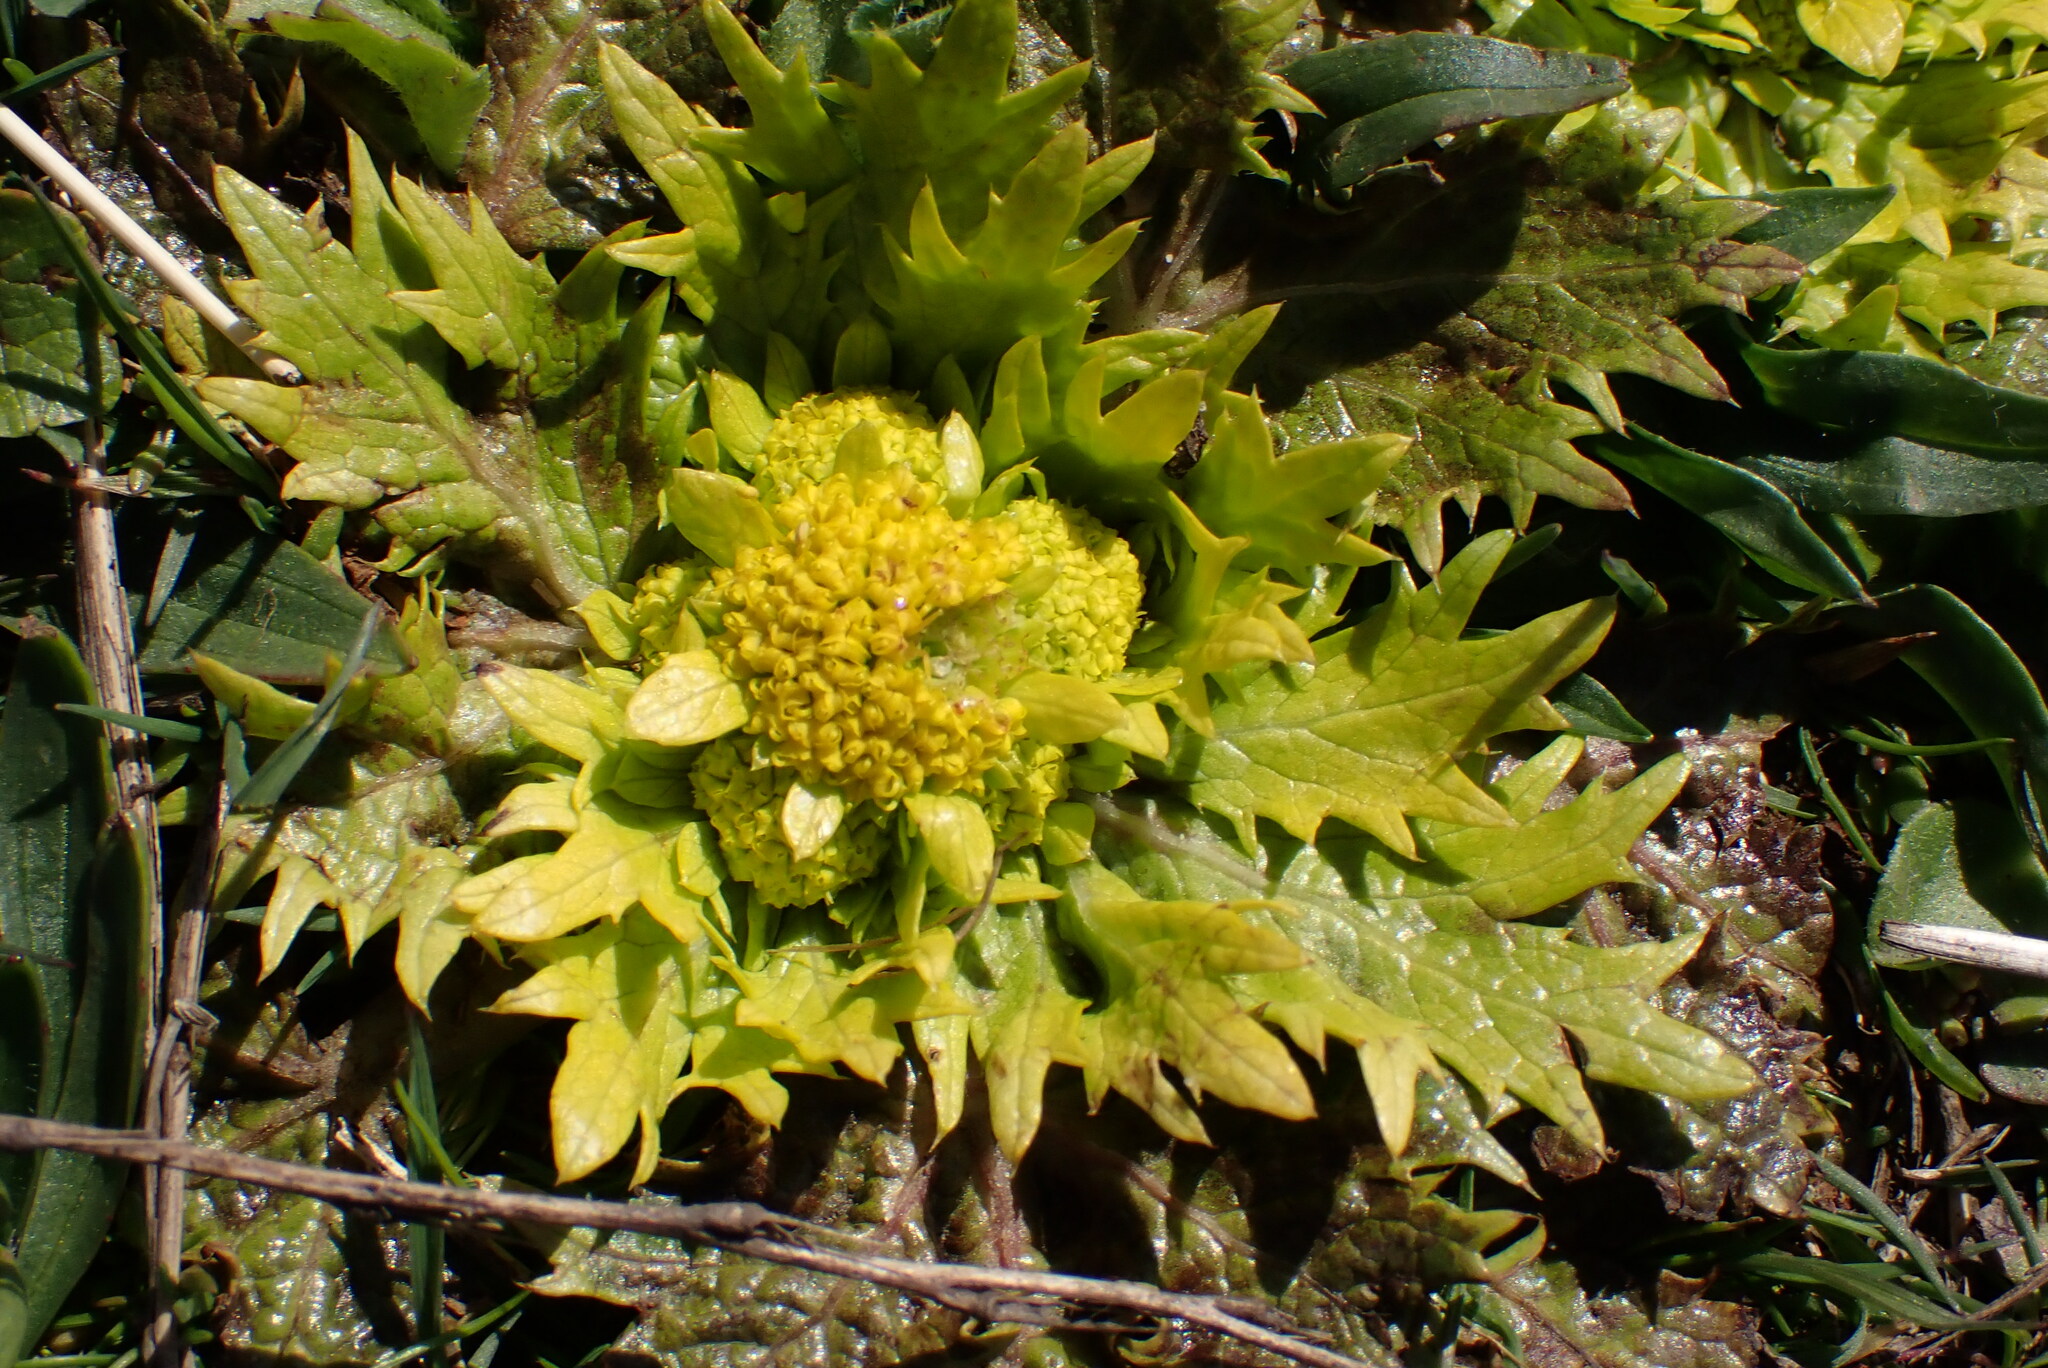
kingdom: Plantae
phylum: Tracheophyta
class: Magnoliopsida
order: Apiales
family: Apiaceae
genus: Sanicula
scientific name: Sanicula arctopoides
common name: Footsteps-of-spring
